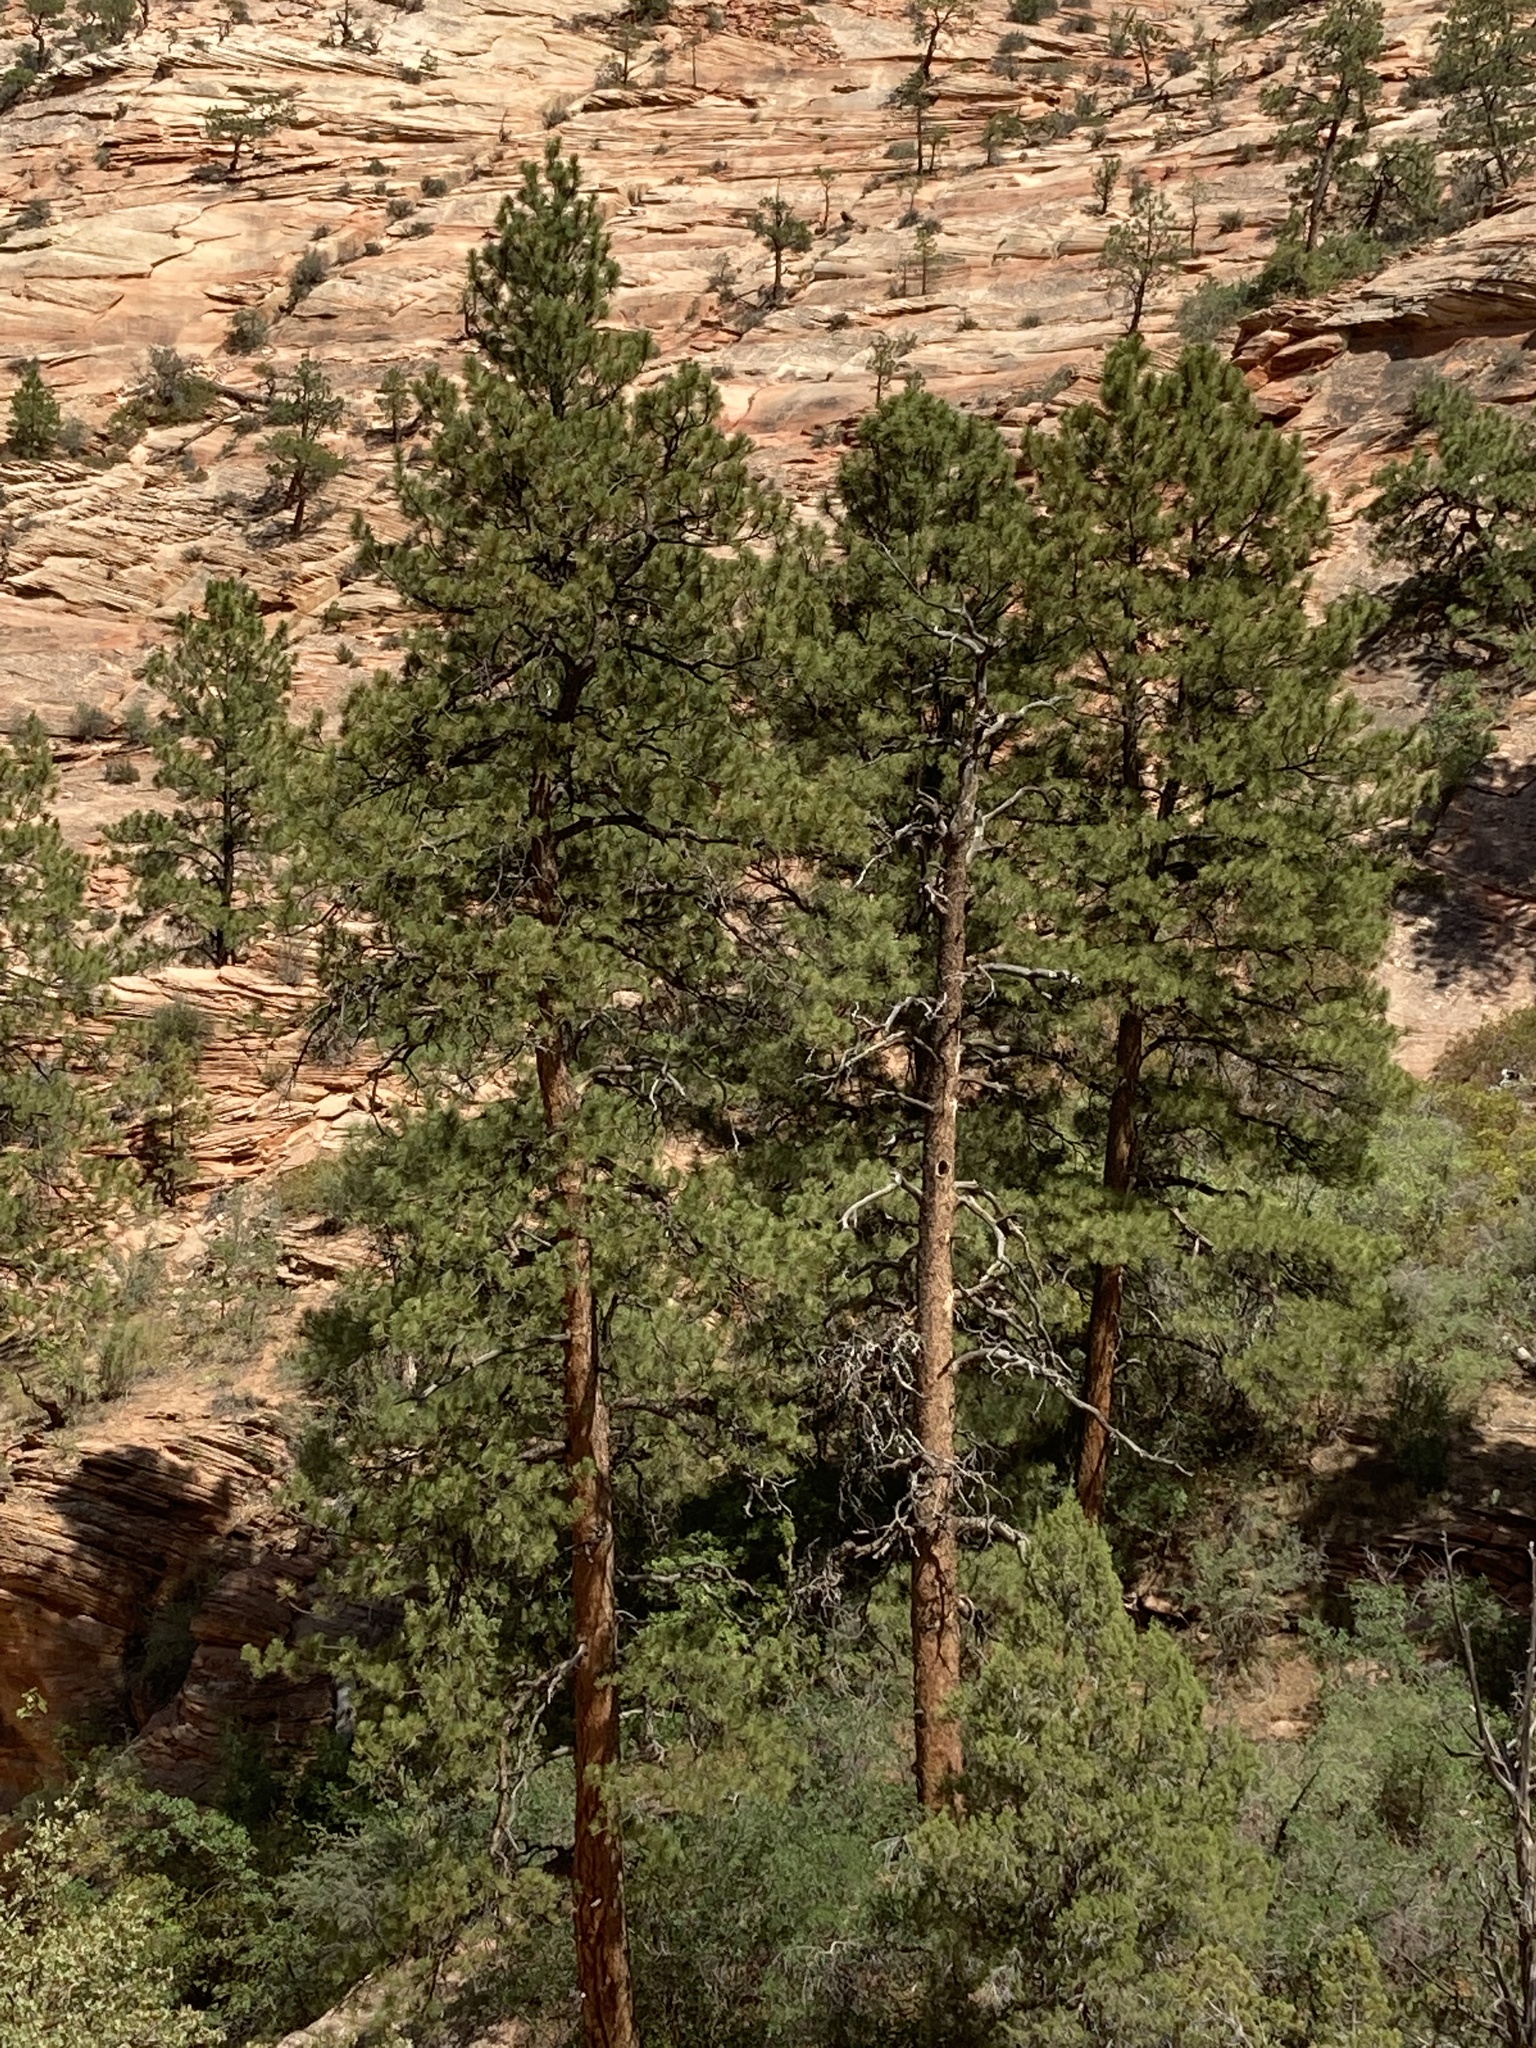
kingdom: Plantae
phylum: Tracheophyta
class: Pinopsida
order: Pinales
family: Pinaceae
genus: Pinus
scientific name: Pinus ponderosa
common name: Western yellow-pine
